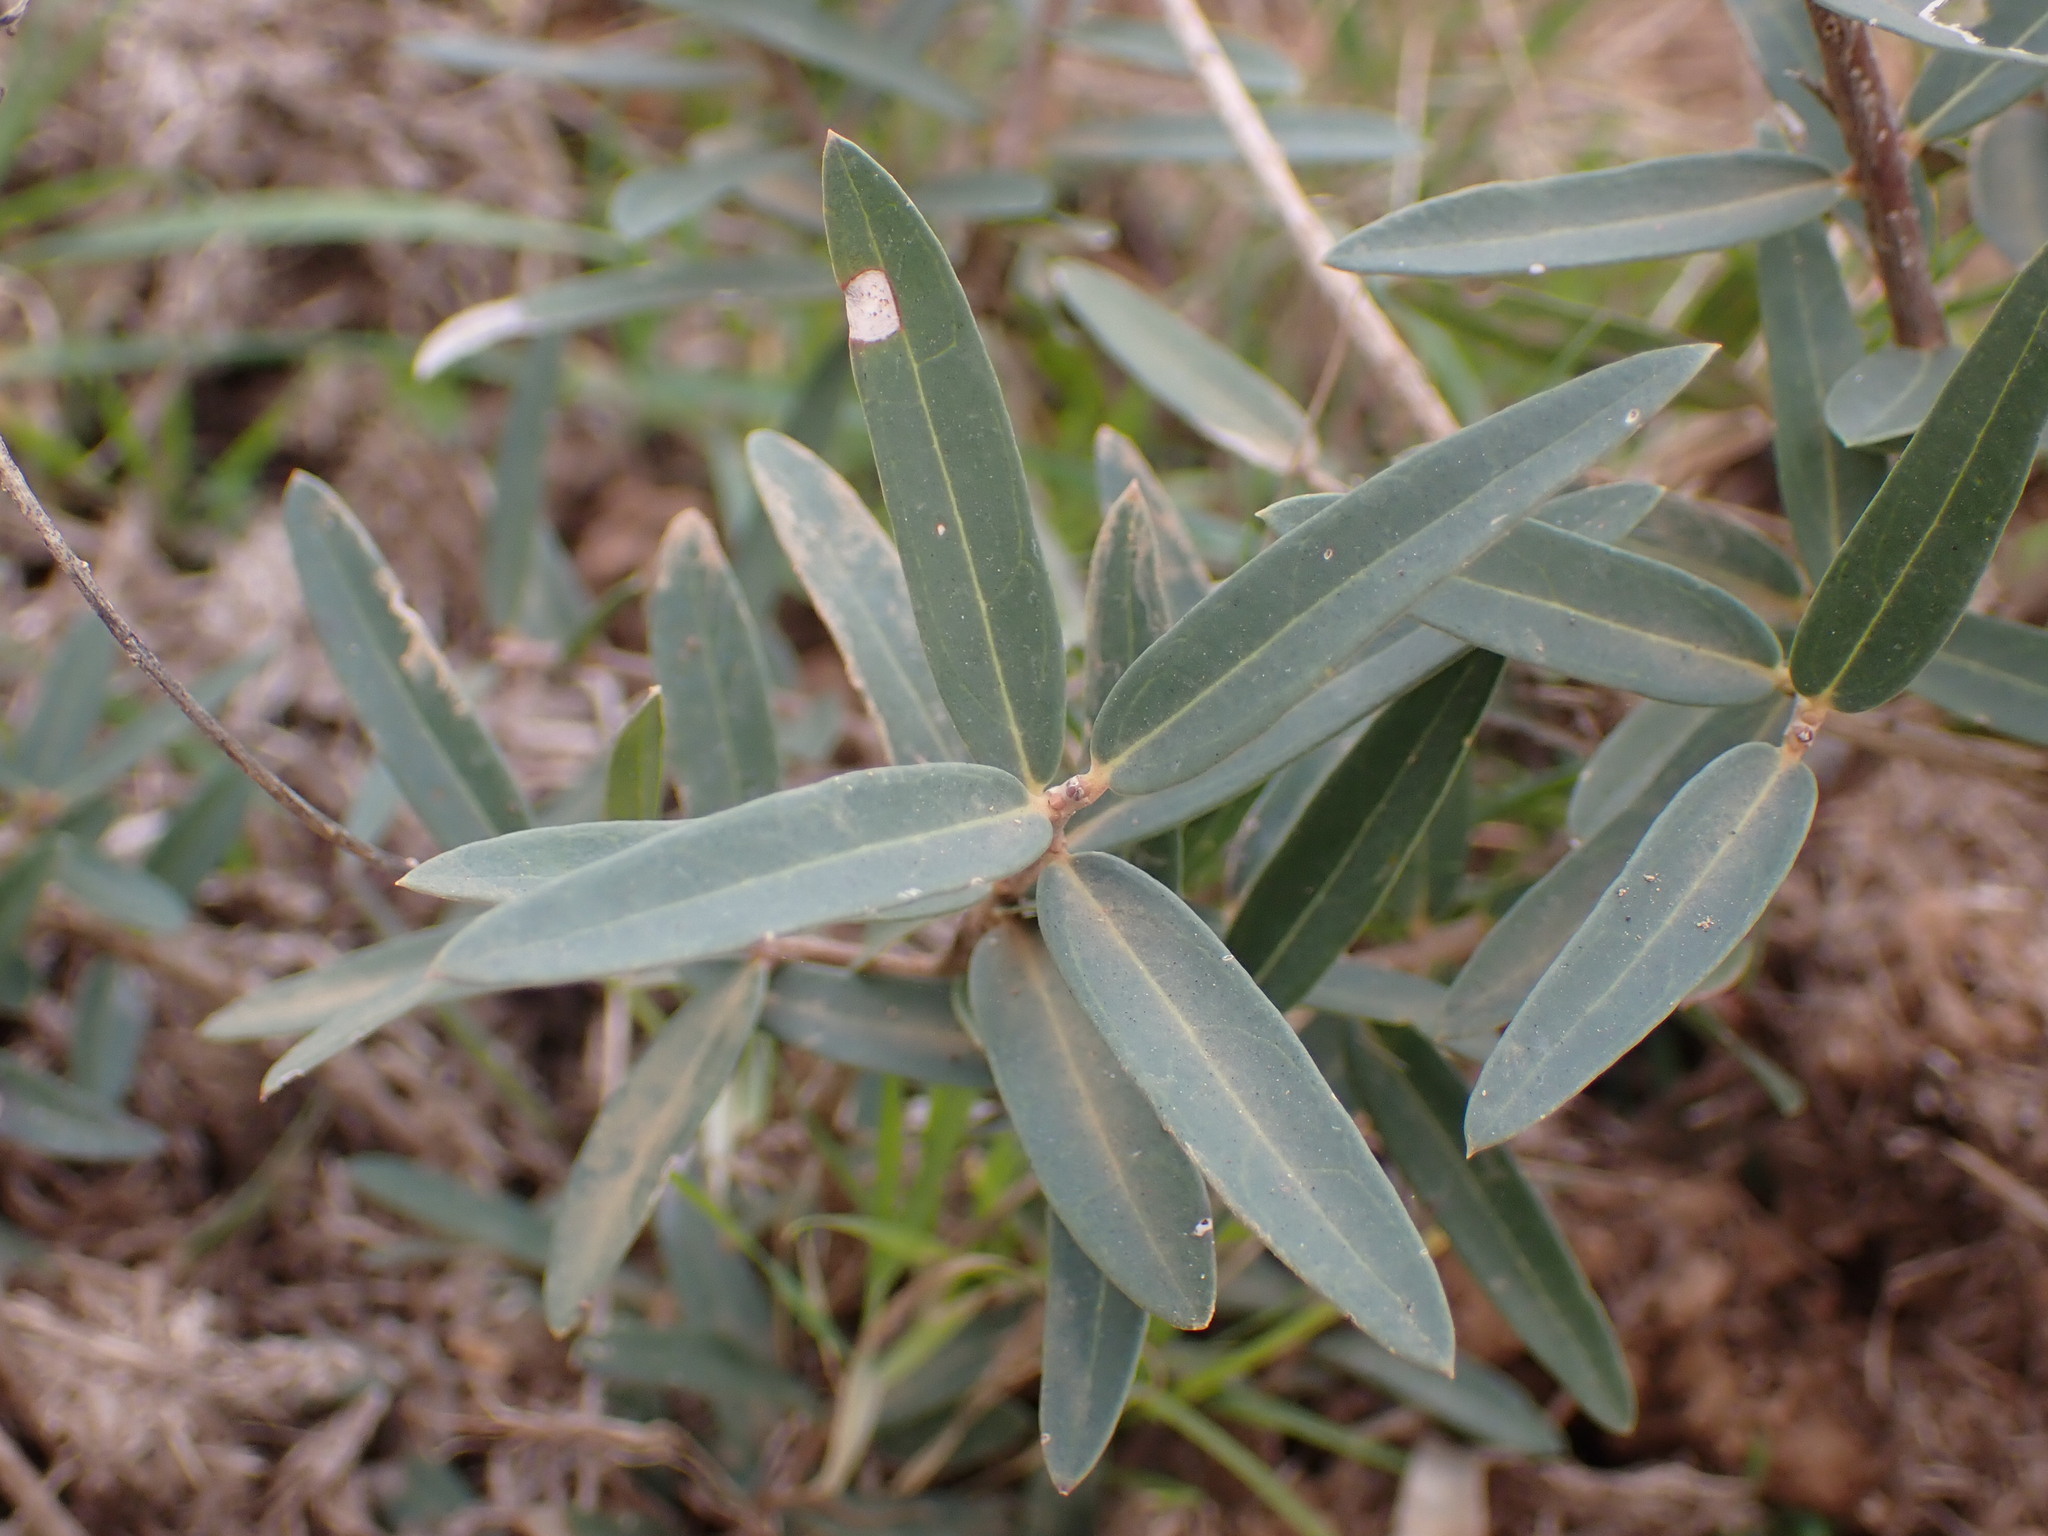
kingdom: Plantae
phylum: Tracheophyta
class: Magnoliopsida
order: Lamiales
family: Oleaceae
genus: Phillyrea
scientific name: Phillyrea angustifolia
